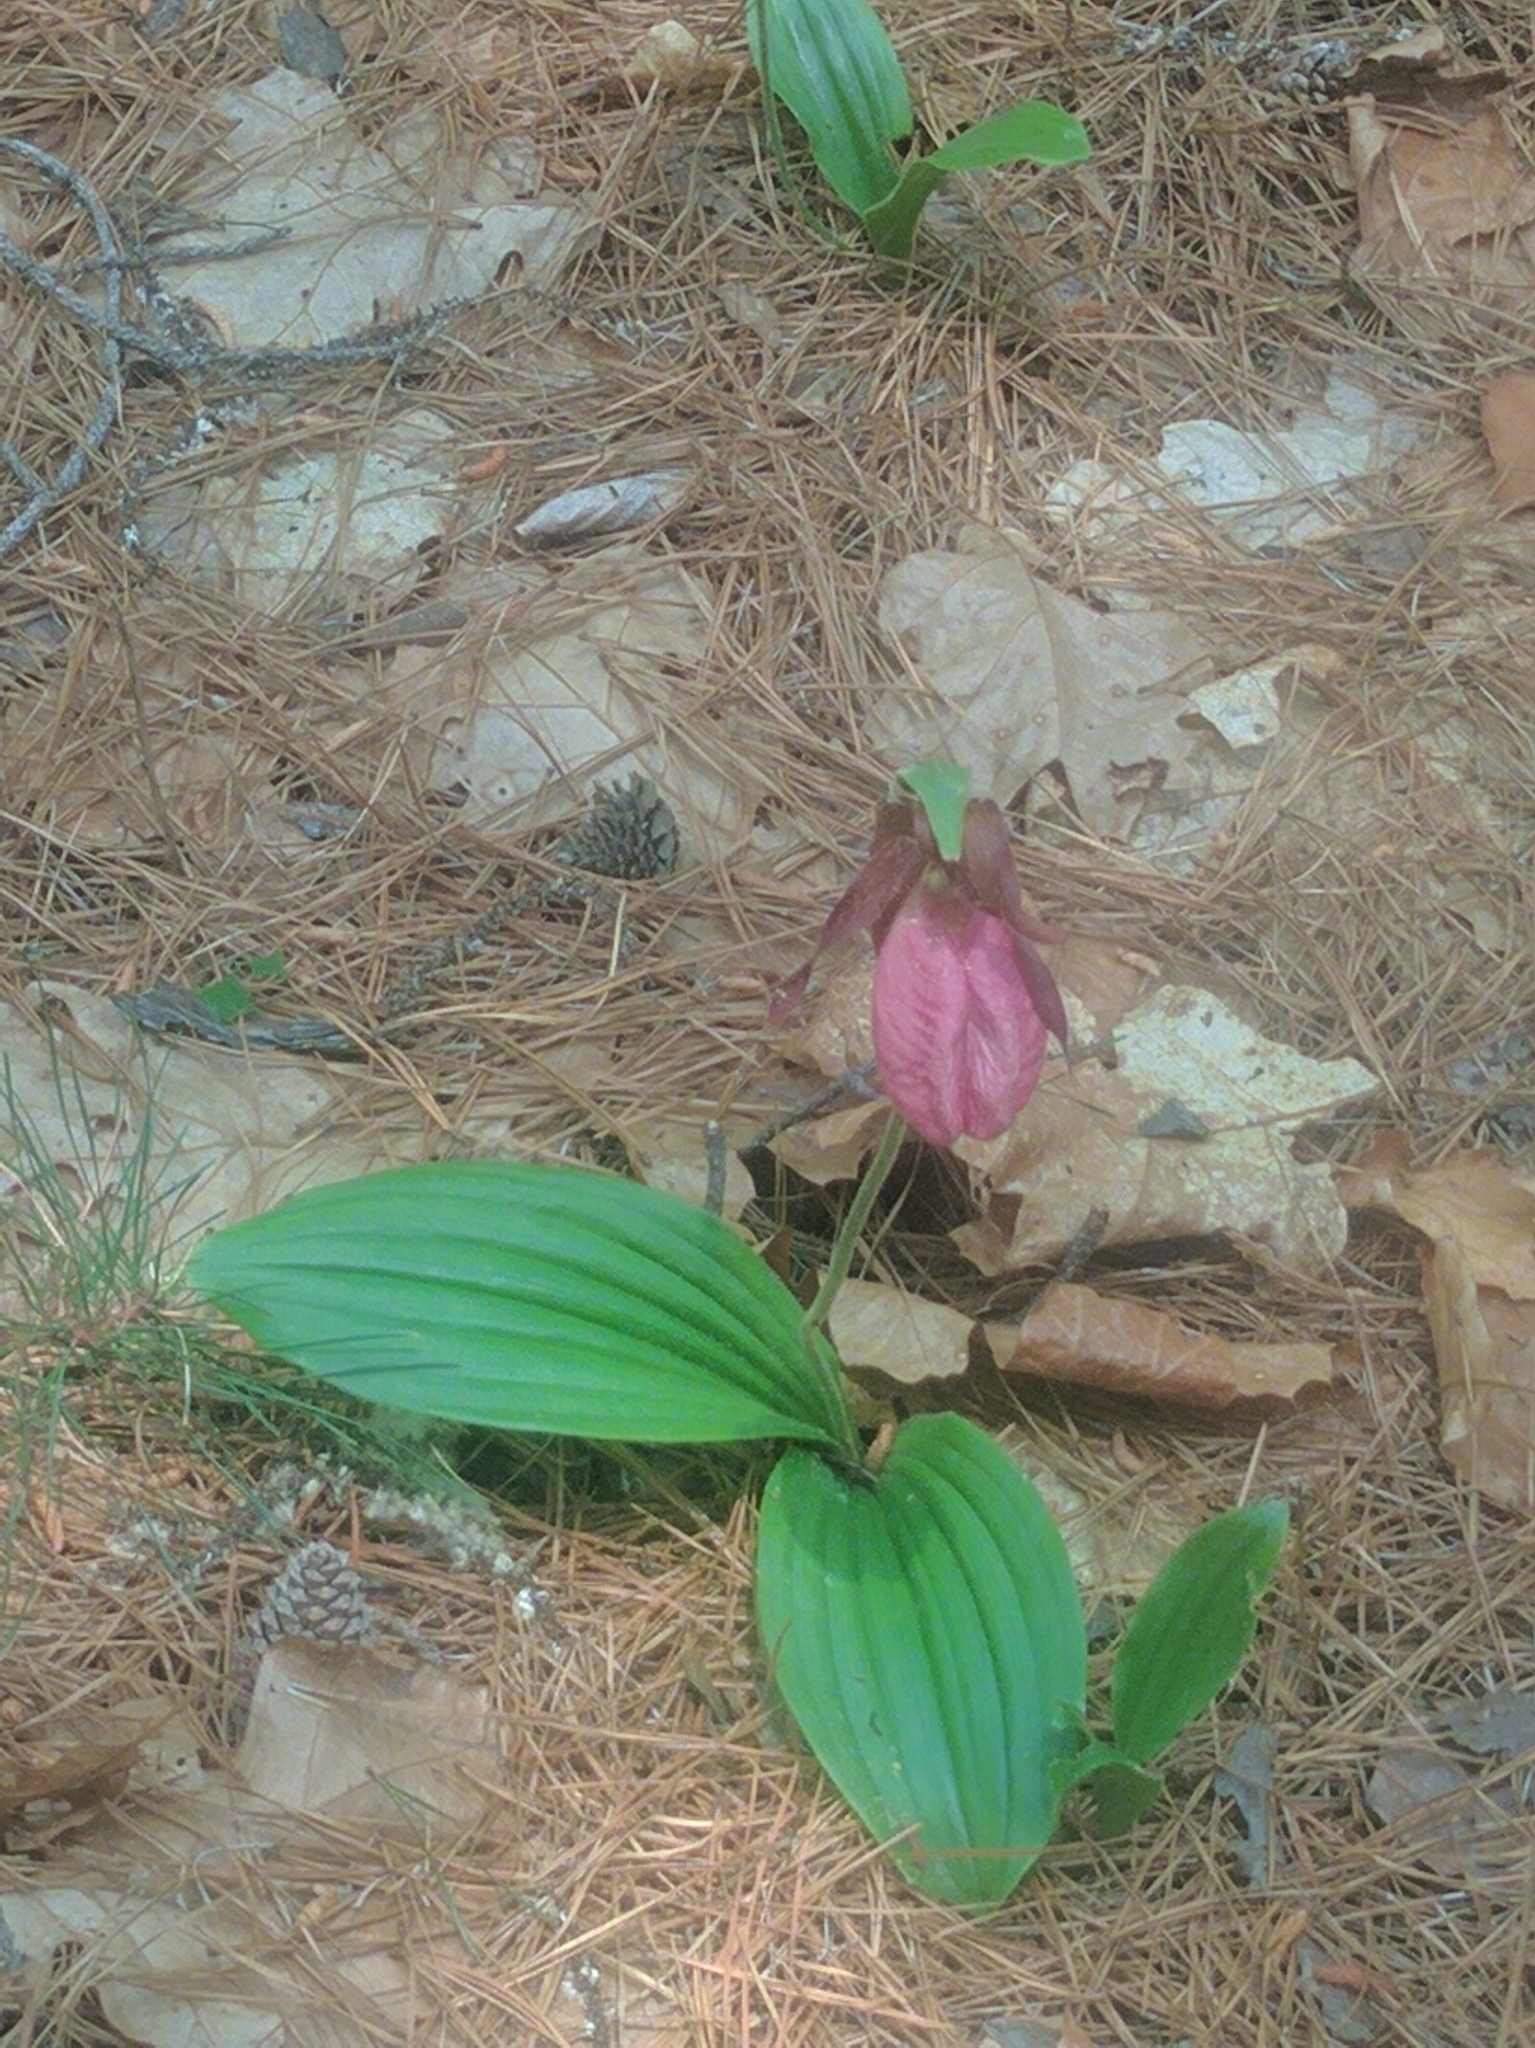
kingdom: Plantae
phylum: Tracheophyta
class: Liliopsida
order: Asparagales
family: Orchidaceae
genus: Cypripedium
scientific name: Cypripedium acaule
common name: Pink lady's-slipper
